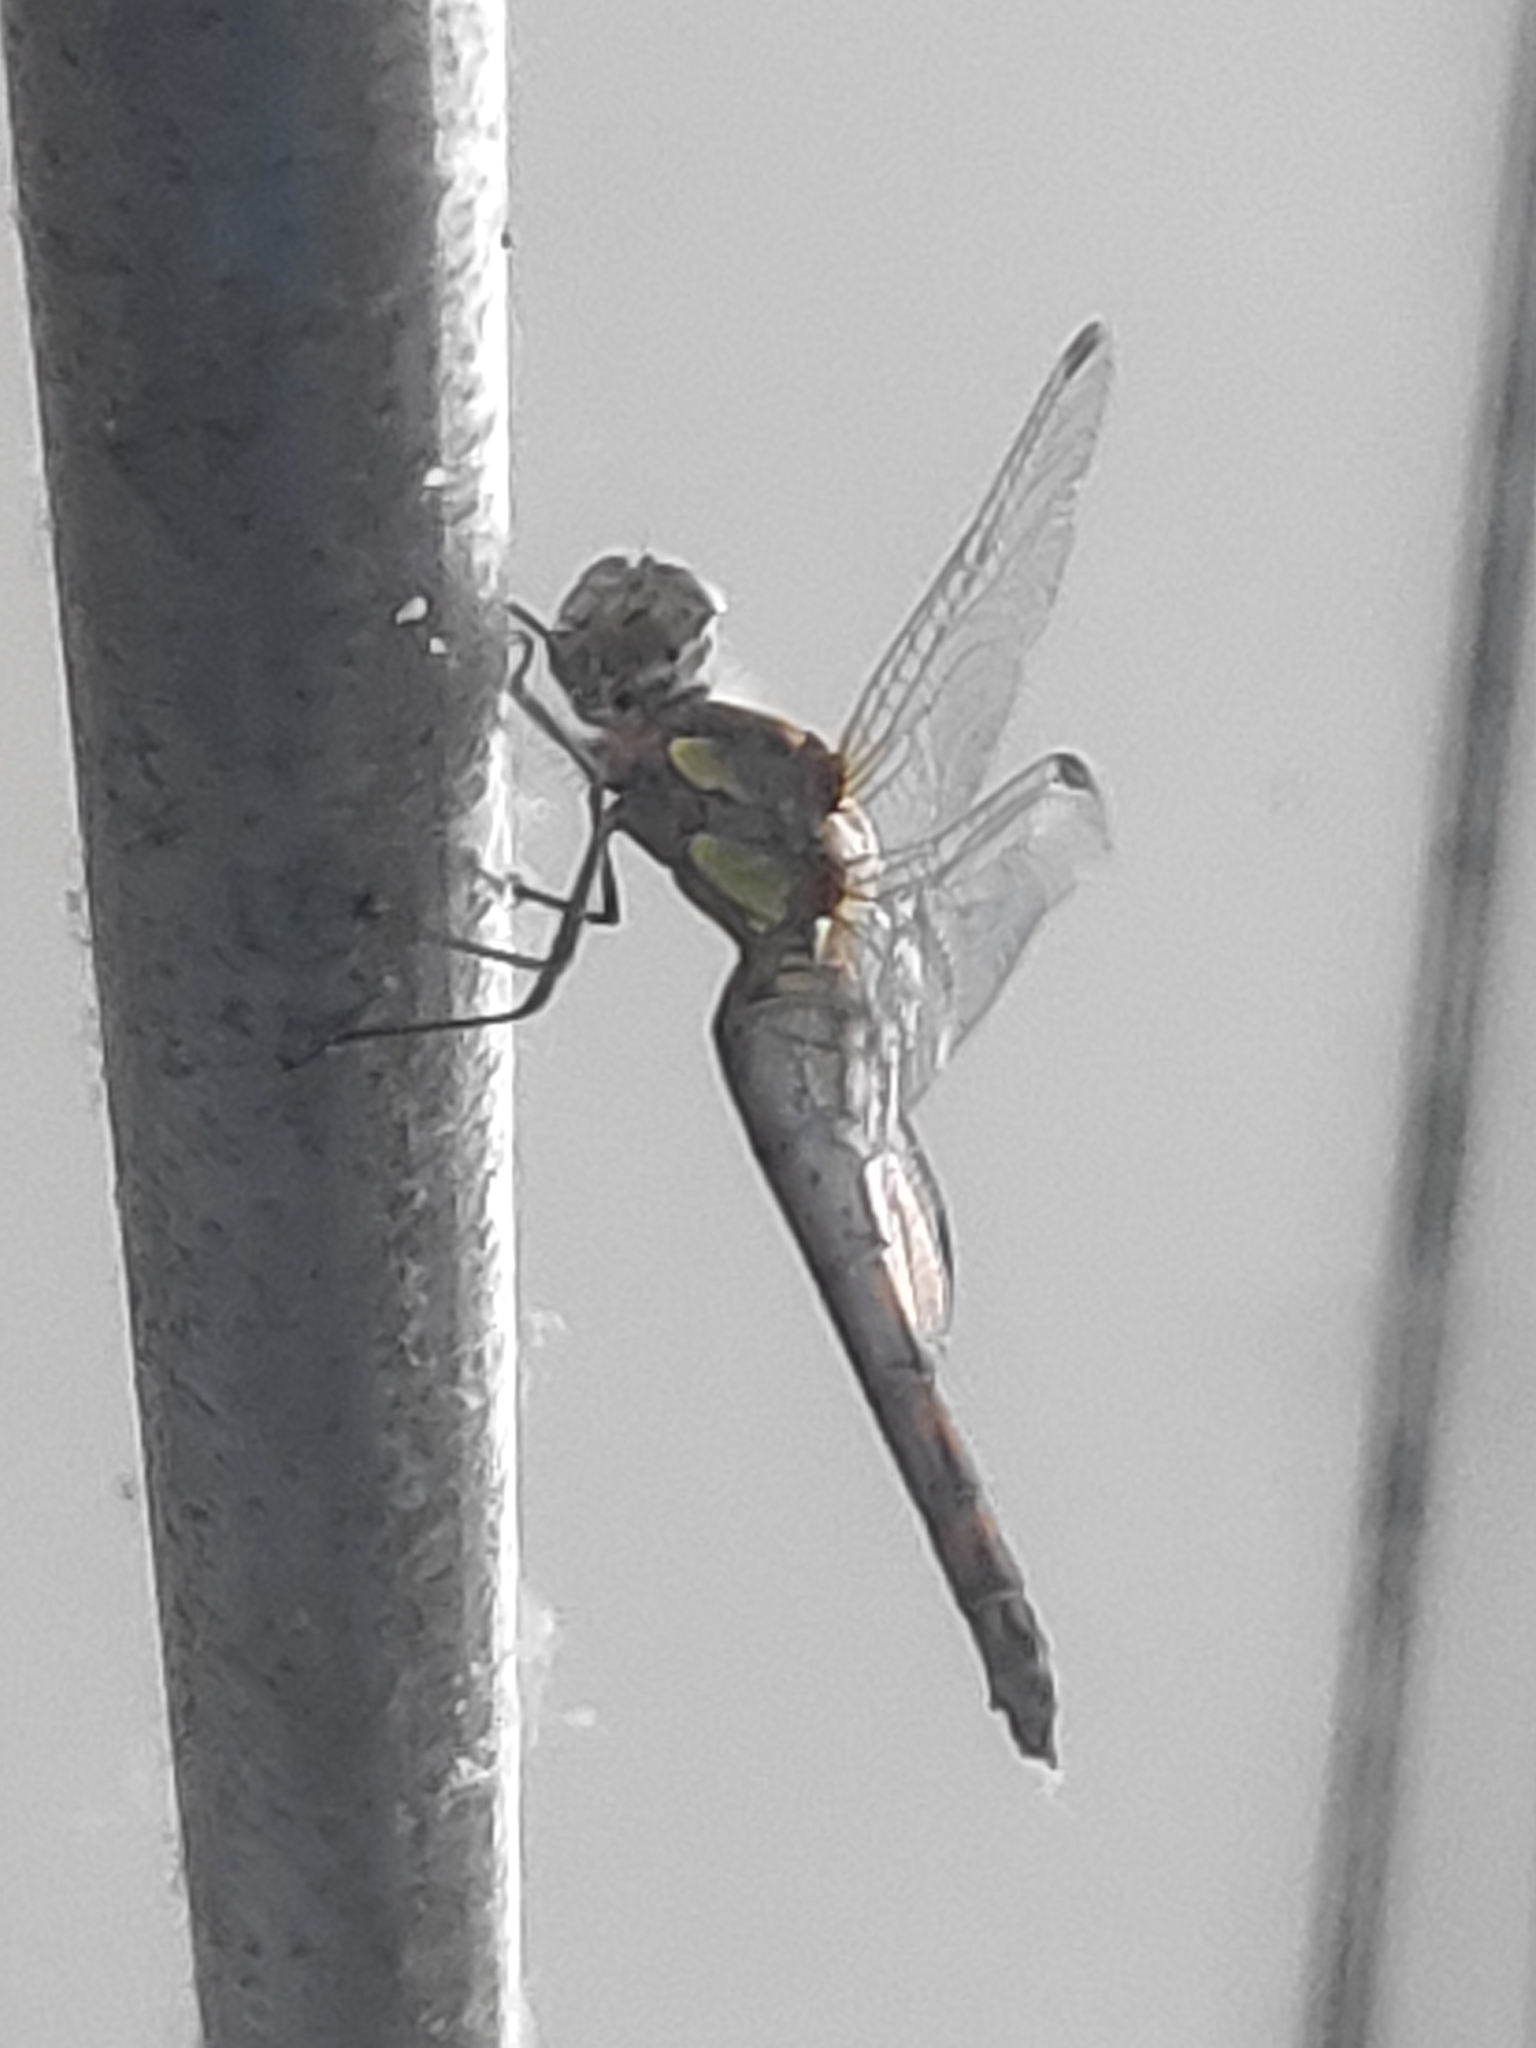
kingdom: Animalia
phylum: Arthropoda
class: Insecta
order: Odonata
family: Libellulidae
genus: Sympetrum
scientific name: Sympetrum striolatum
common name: Common darter
